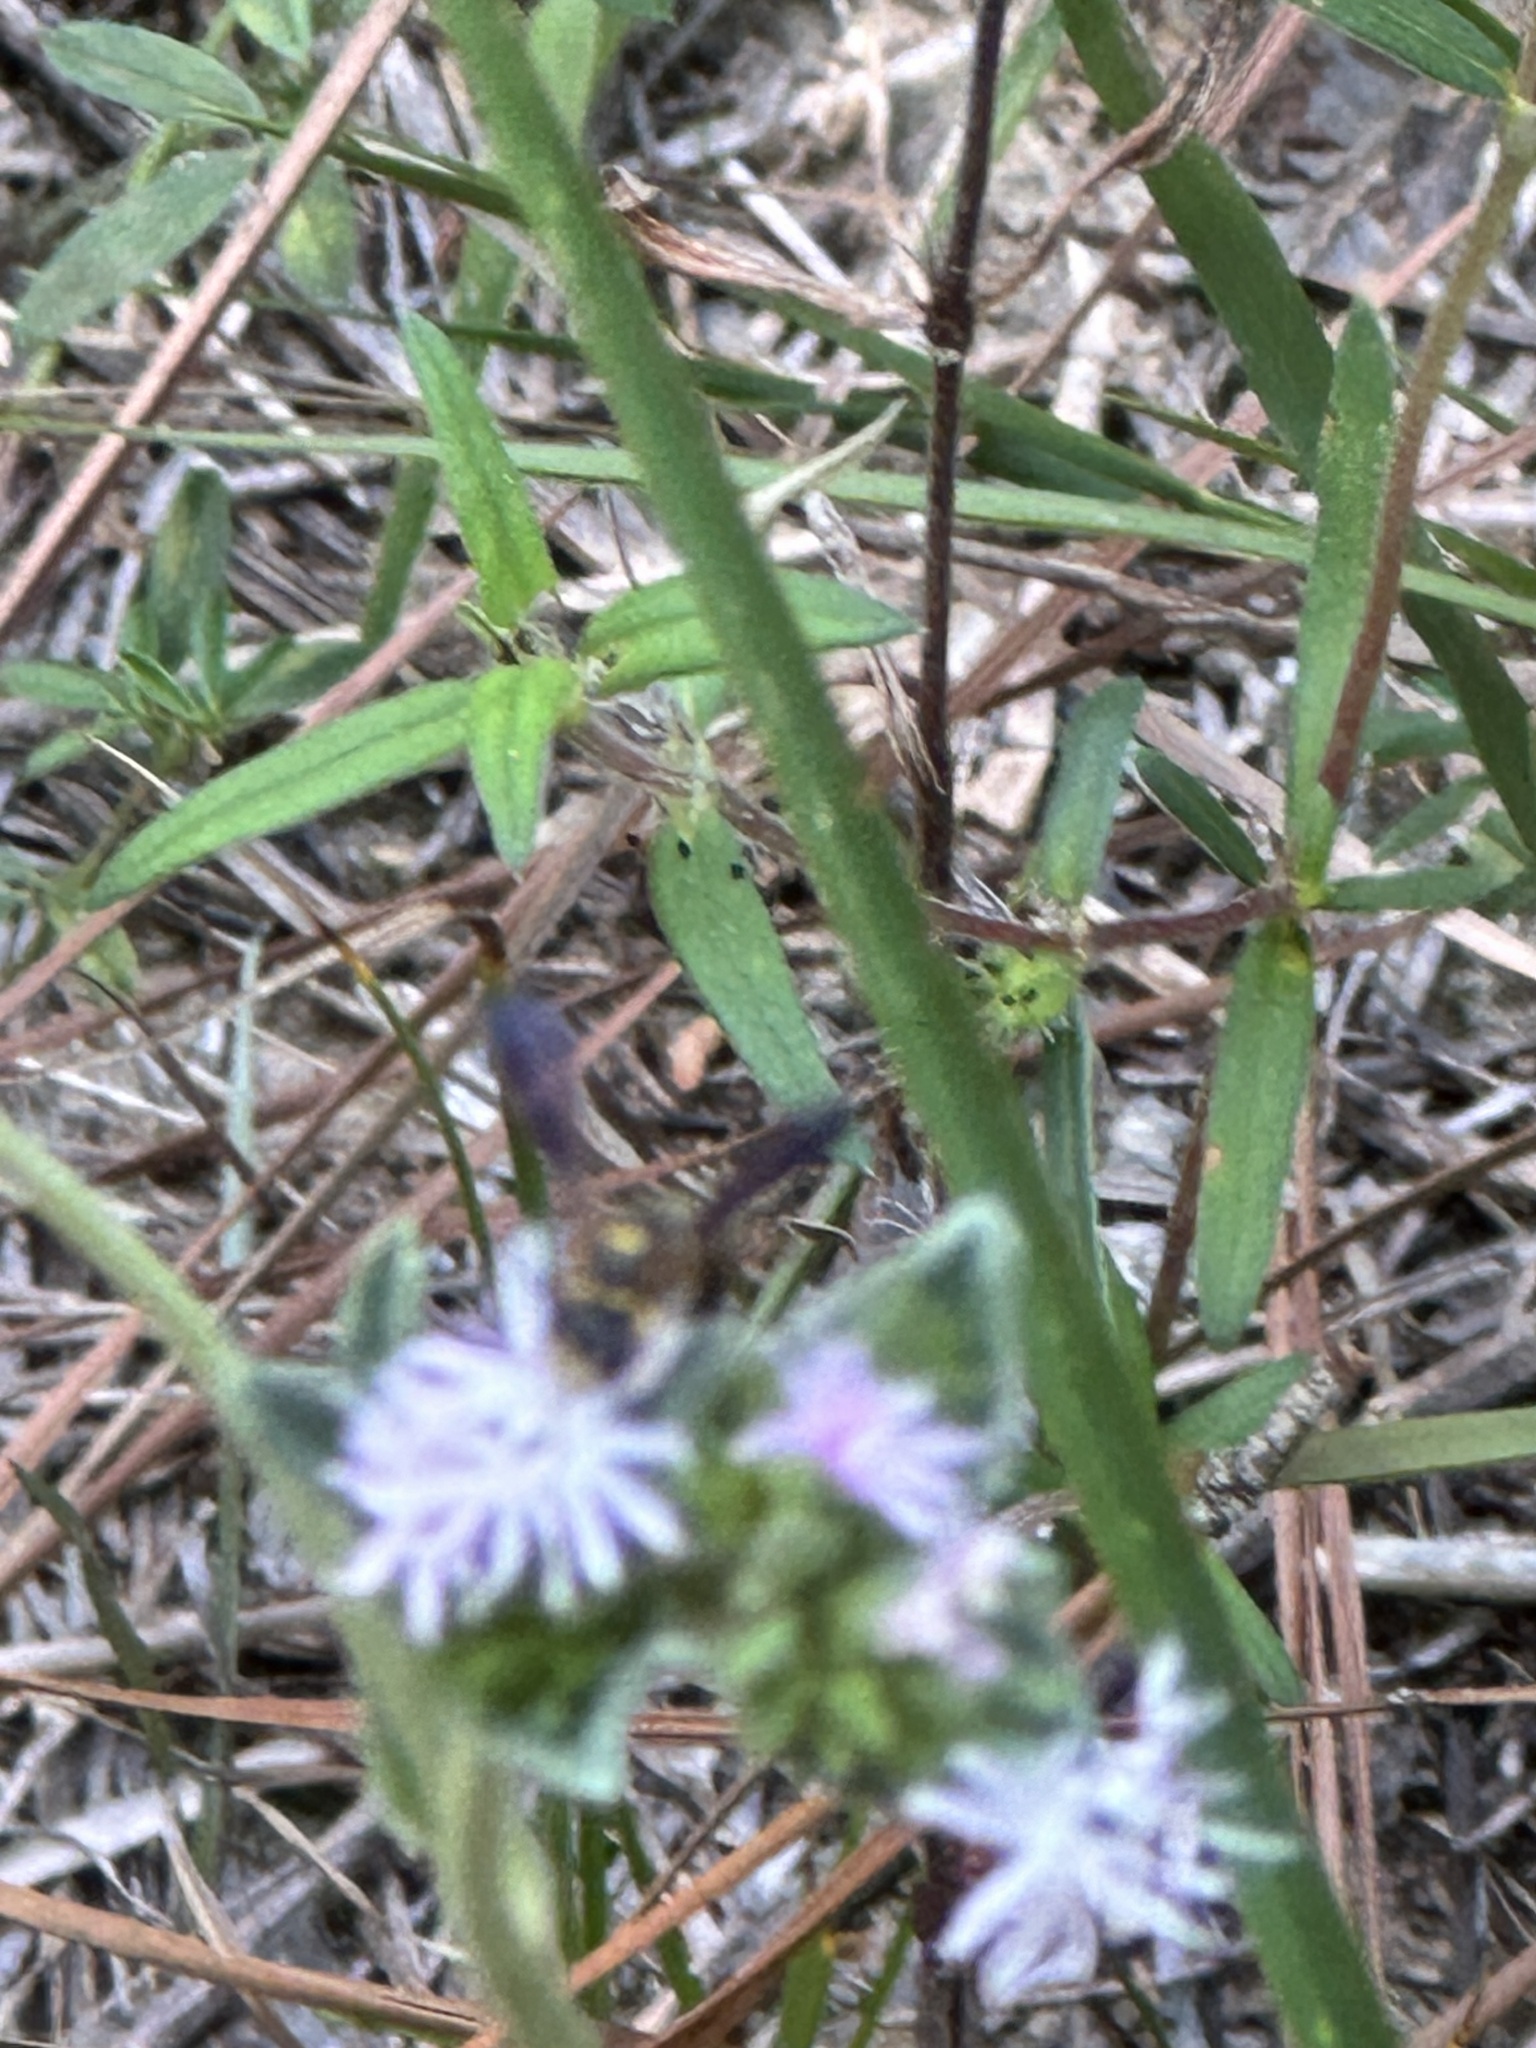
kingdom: Animalia
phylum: Arthropoda
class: Insecta
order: Hymenoptera
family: Crabronidae
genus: Cerceris
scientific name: Cerceris fumipennis
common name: Smokey-winged beetle bandit wasp
